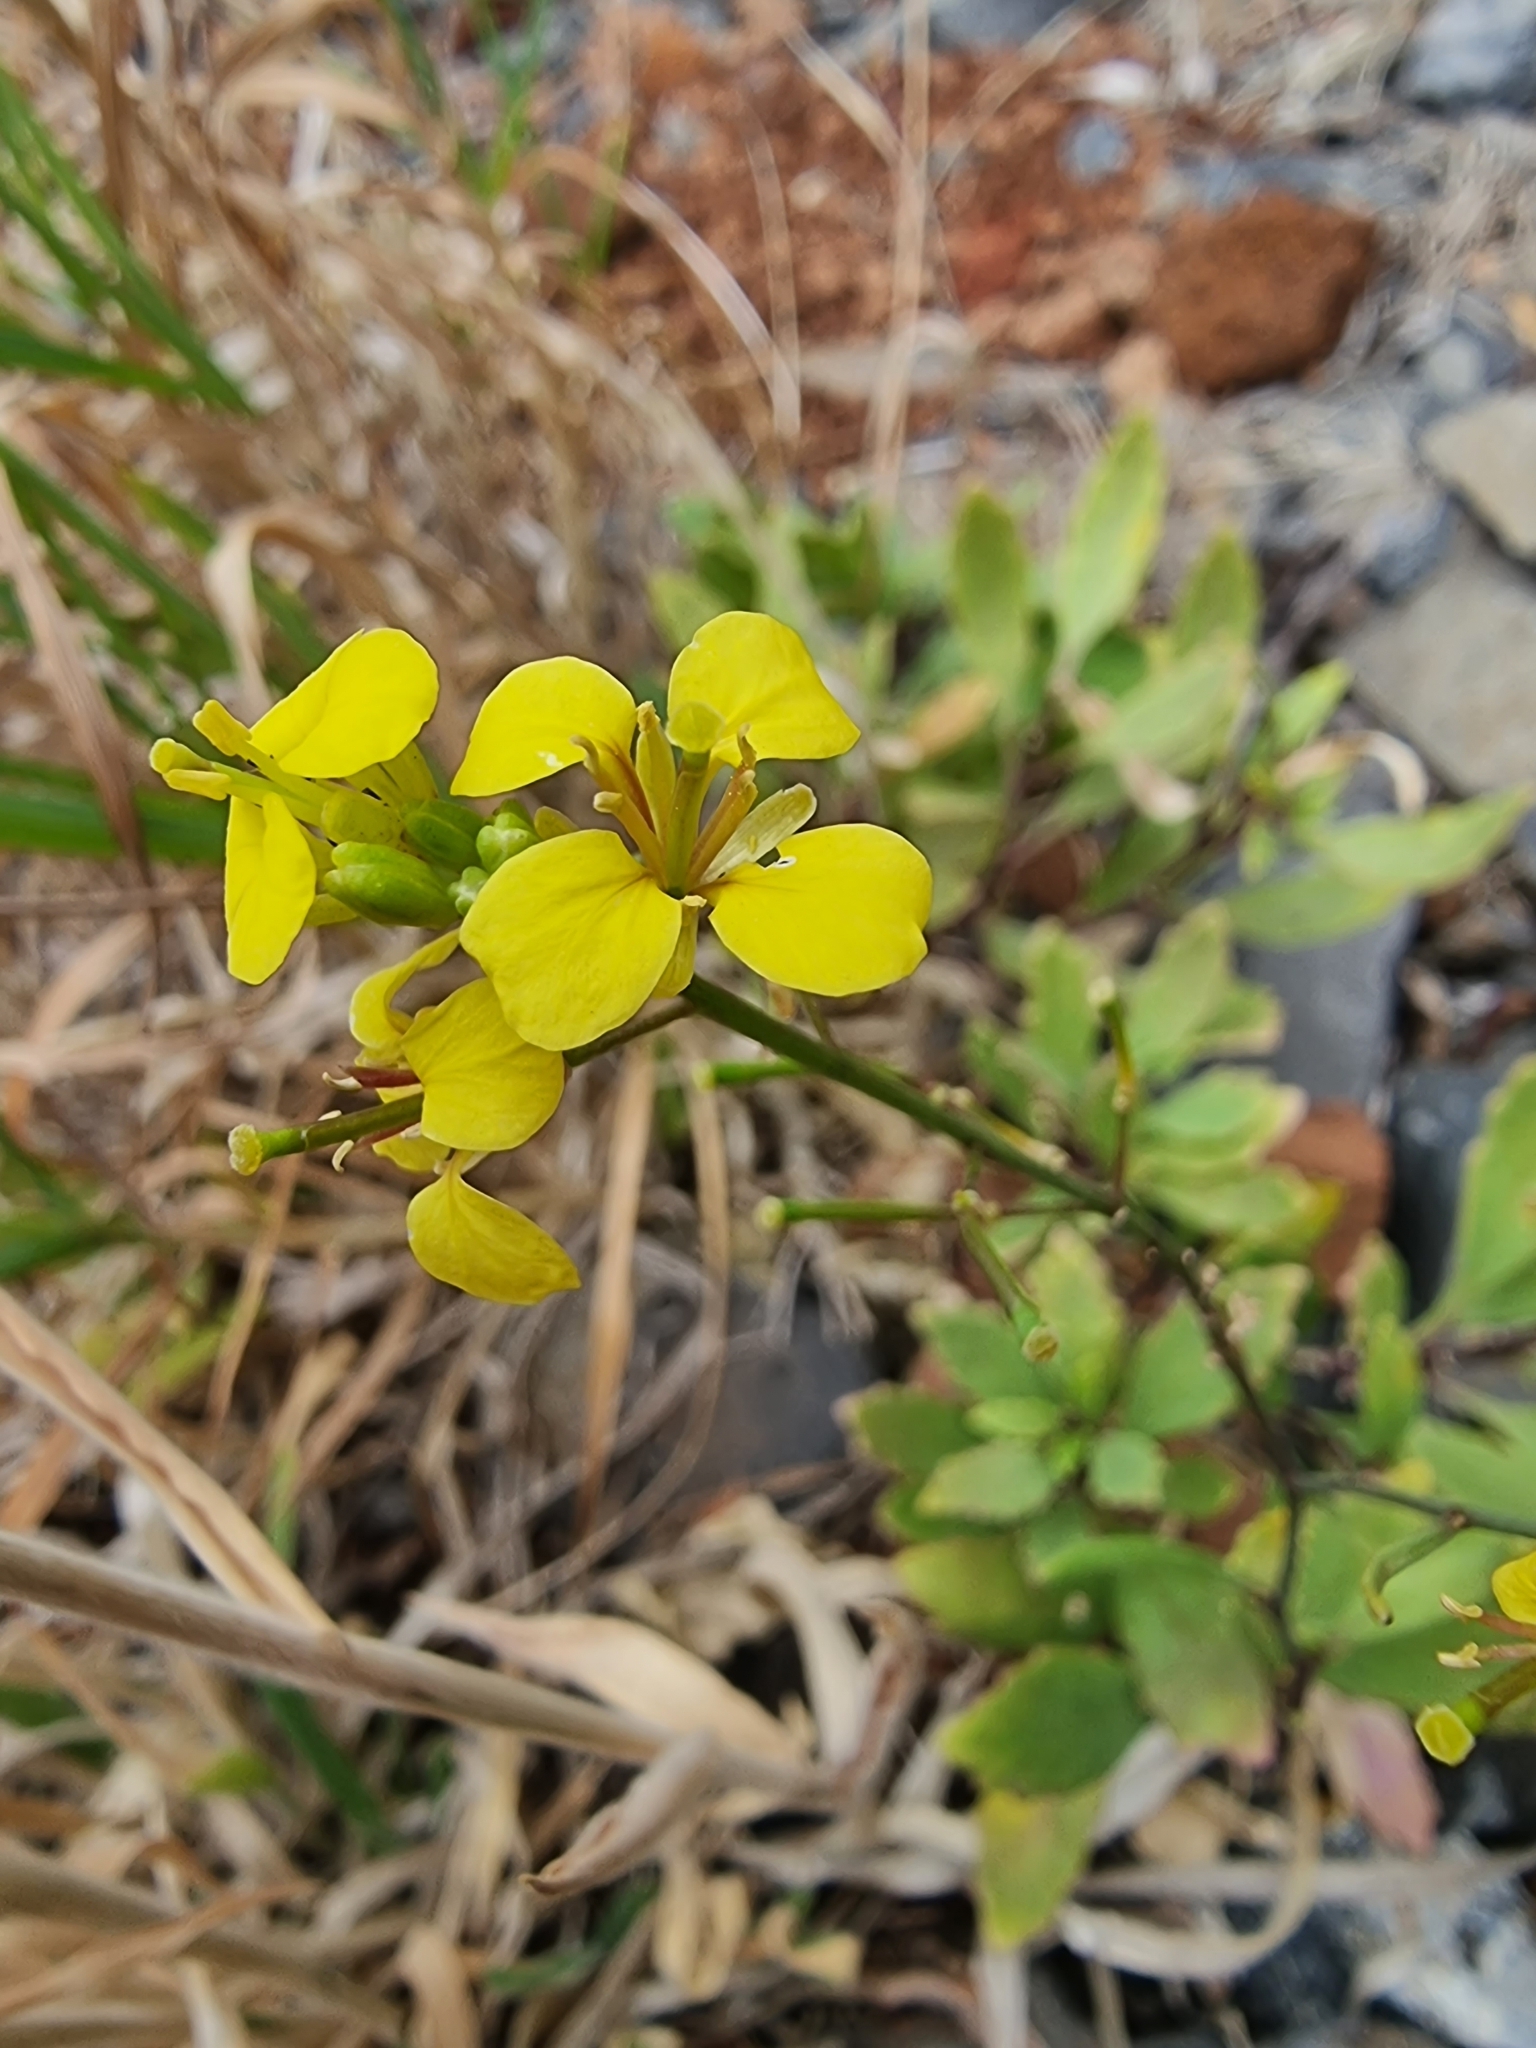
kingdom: Plantae
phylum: Tracheophyta
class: Magnoliopsida
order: Brassicales
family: Brassicaceae
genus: Sinapidendron
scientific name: Sinapidendron frutescens
